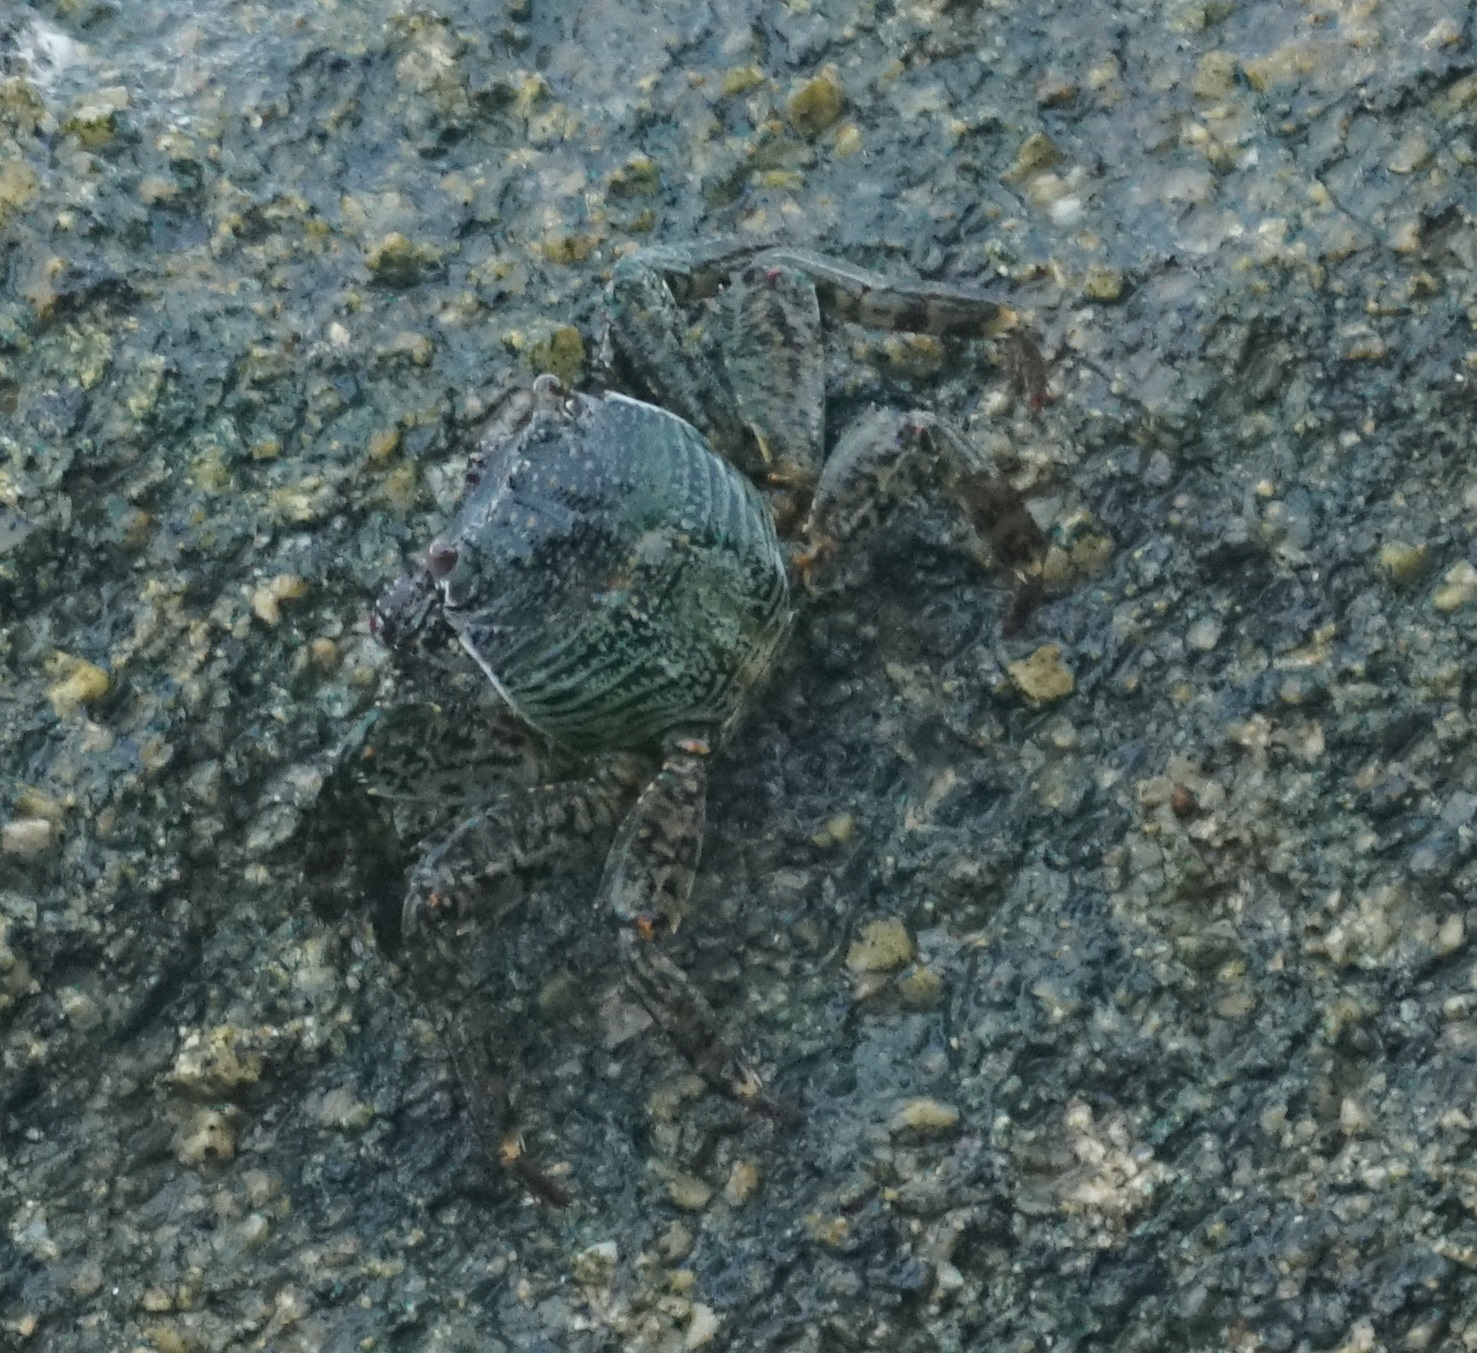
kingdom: Animalia
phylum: Arthropoda
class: Malacostraca
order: Decapoda
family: Grapsidae
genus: Grapsus
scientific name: Grapsus albolineatus
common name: Mottled lightfoot crab
